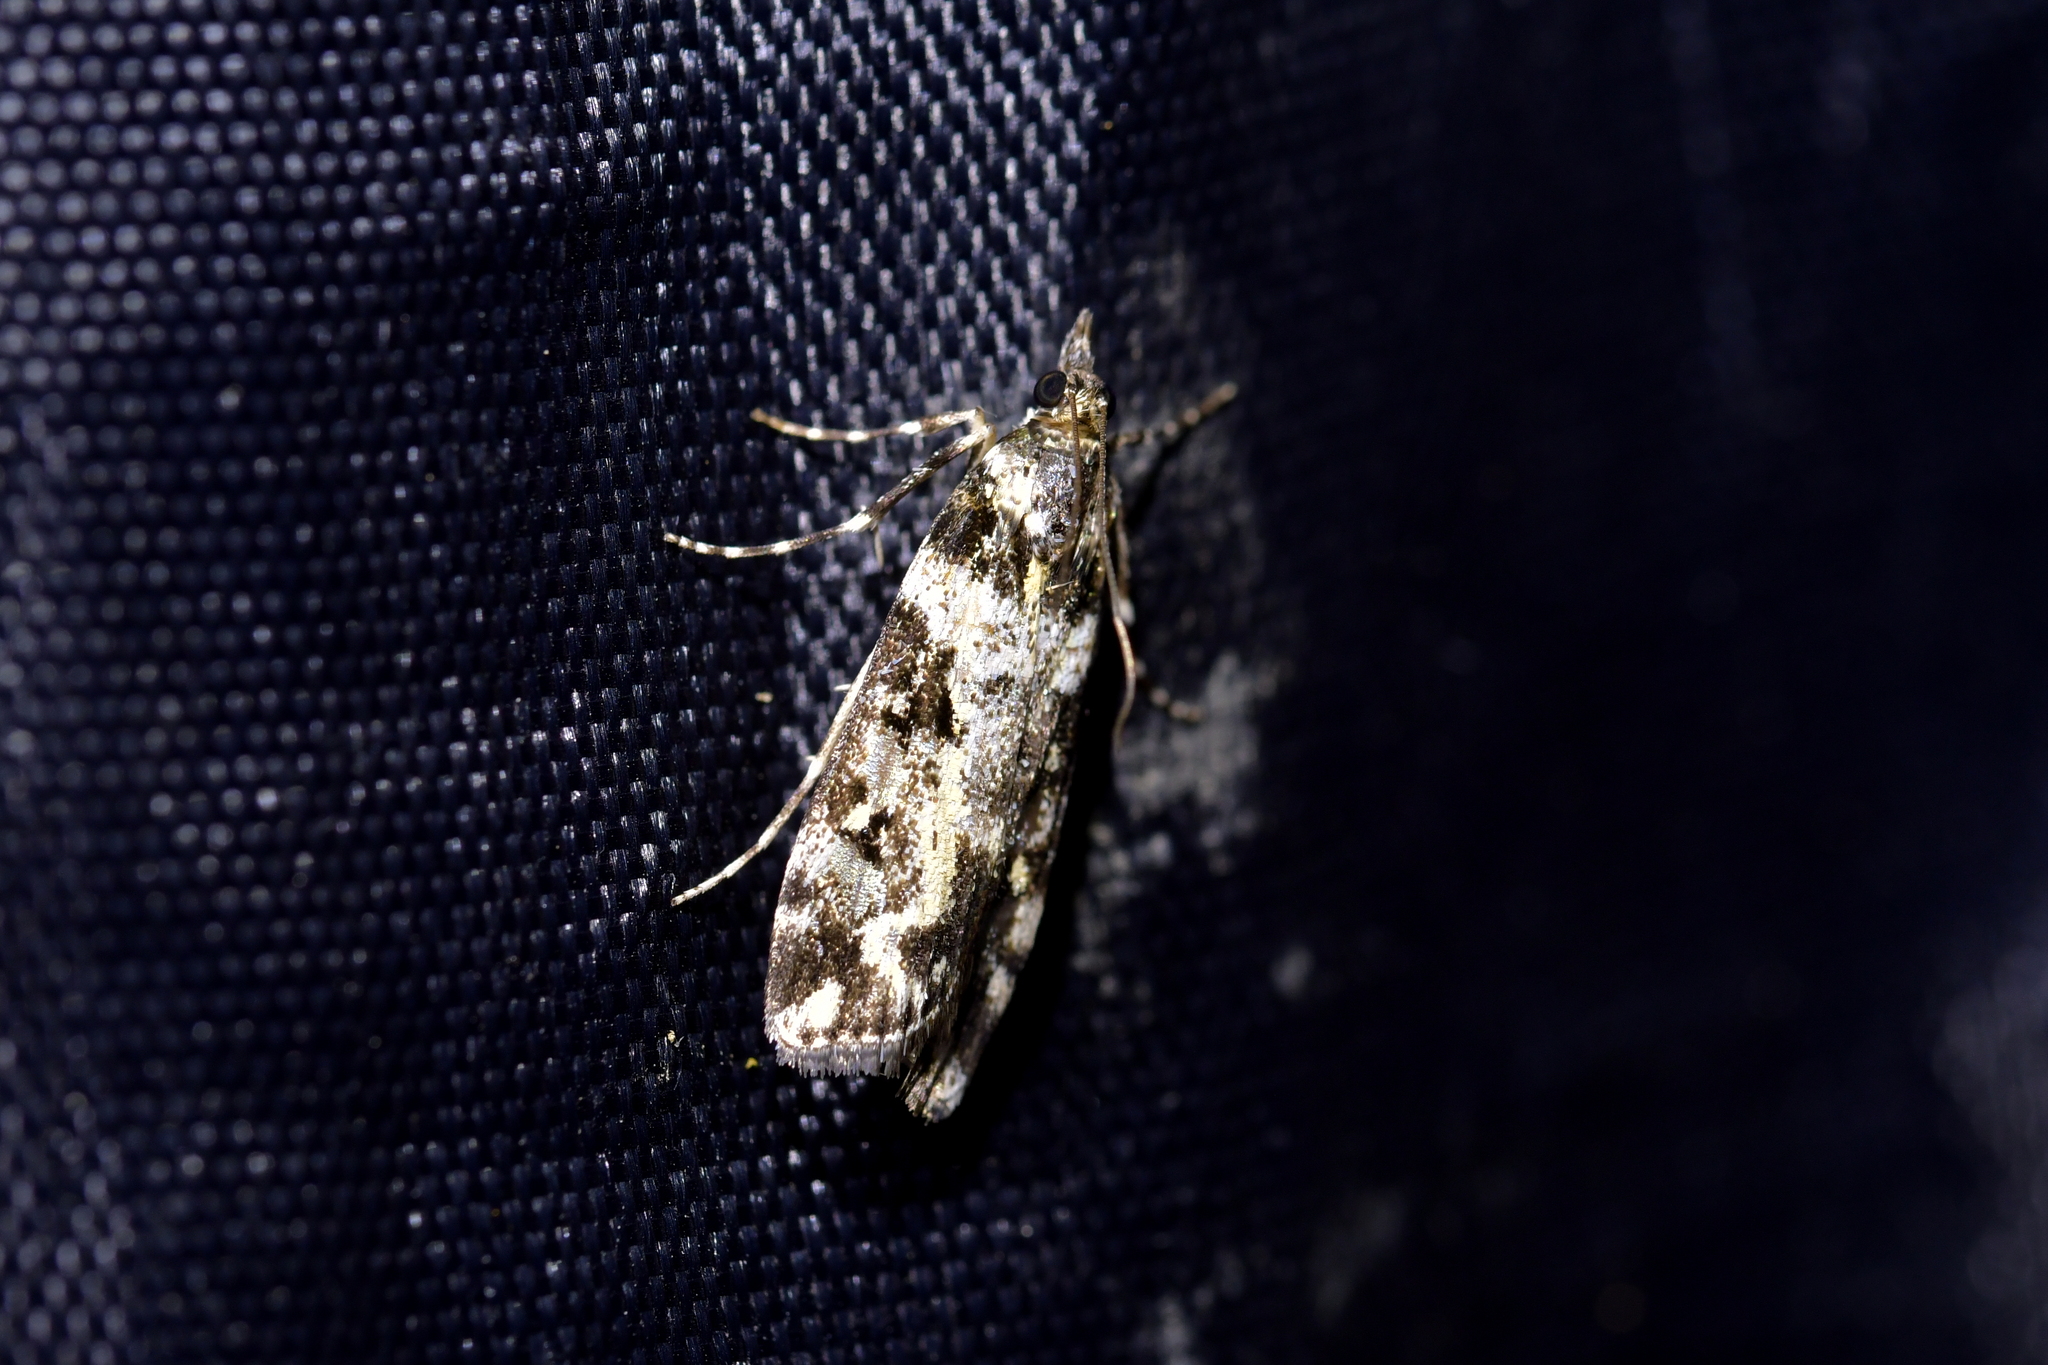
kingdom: Animalia
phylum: Arthropoda
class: Insecta
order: Lepidoptera
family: Crambidae
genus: Eudonia
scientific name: Eudonia diphtheralis
